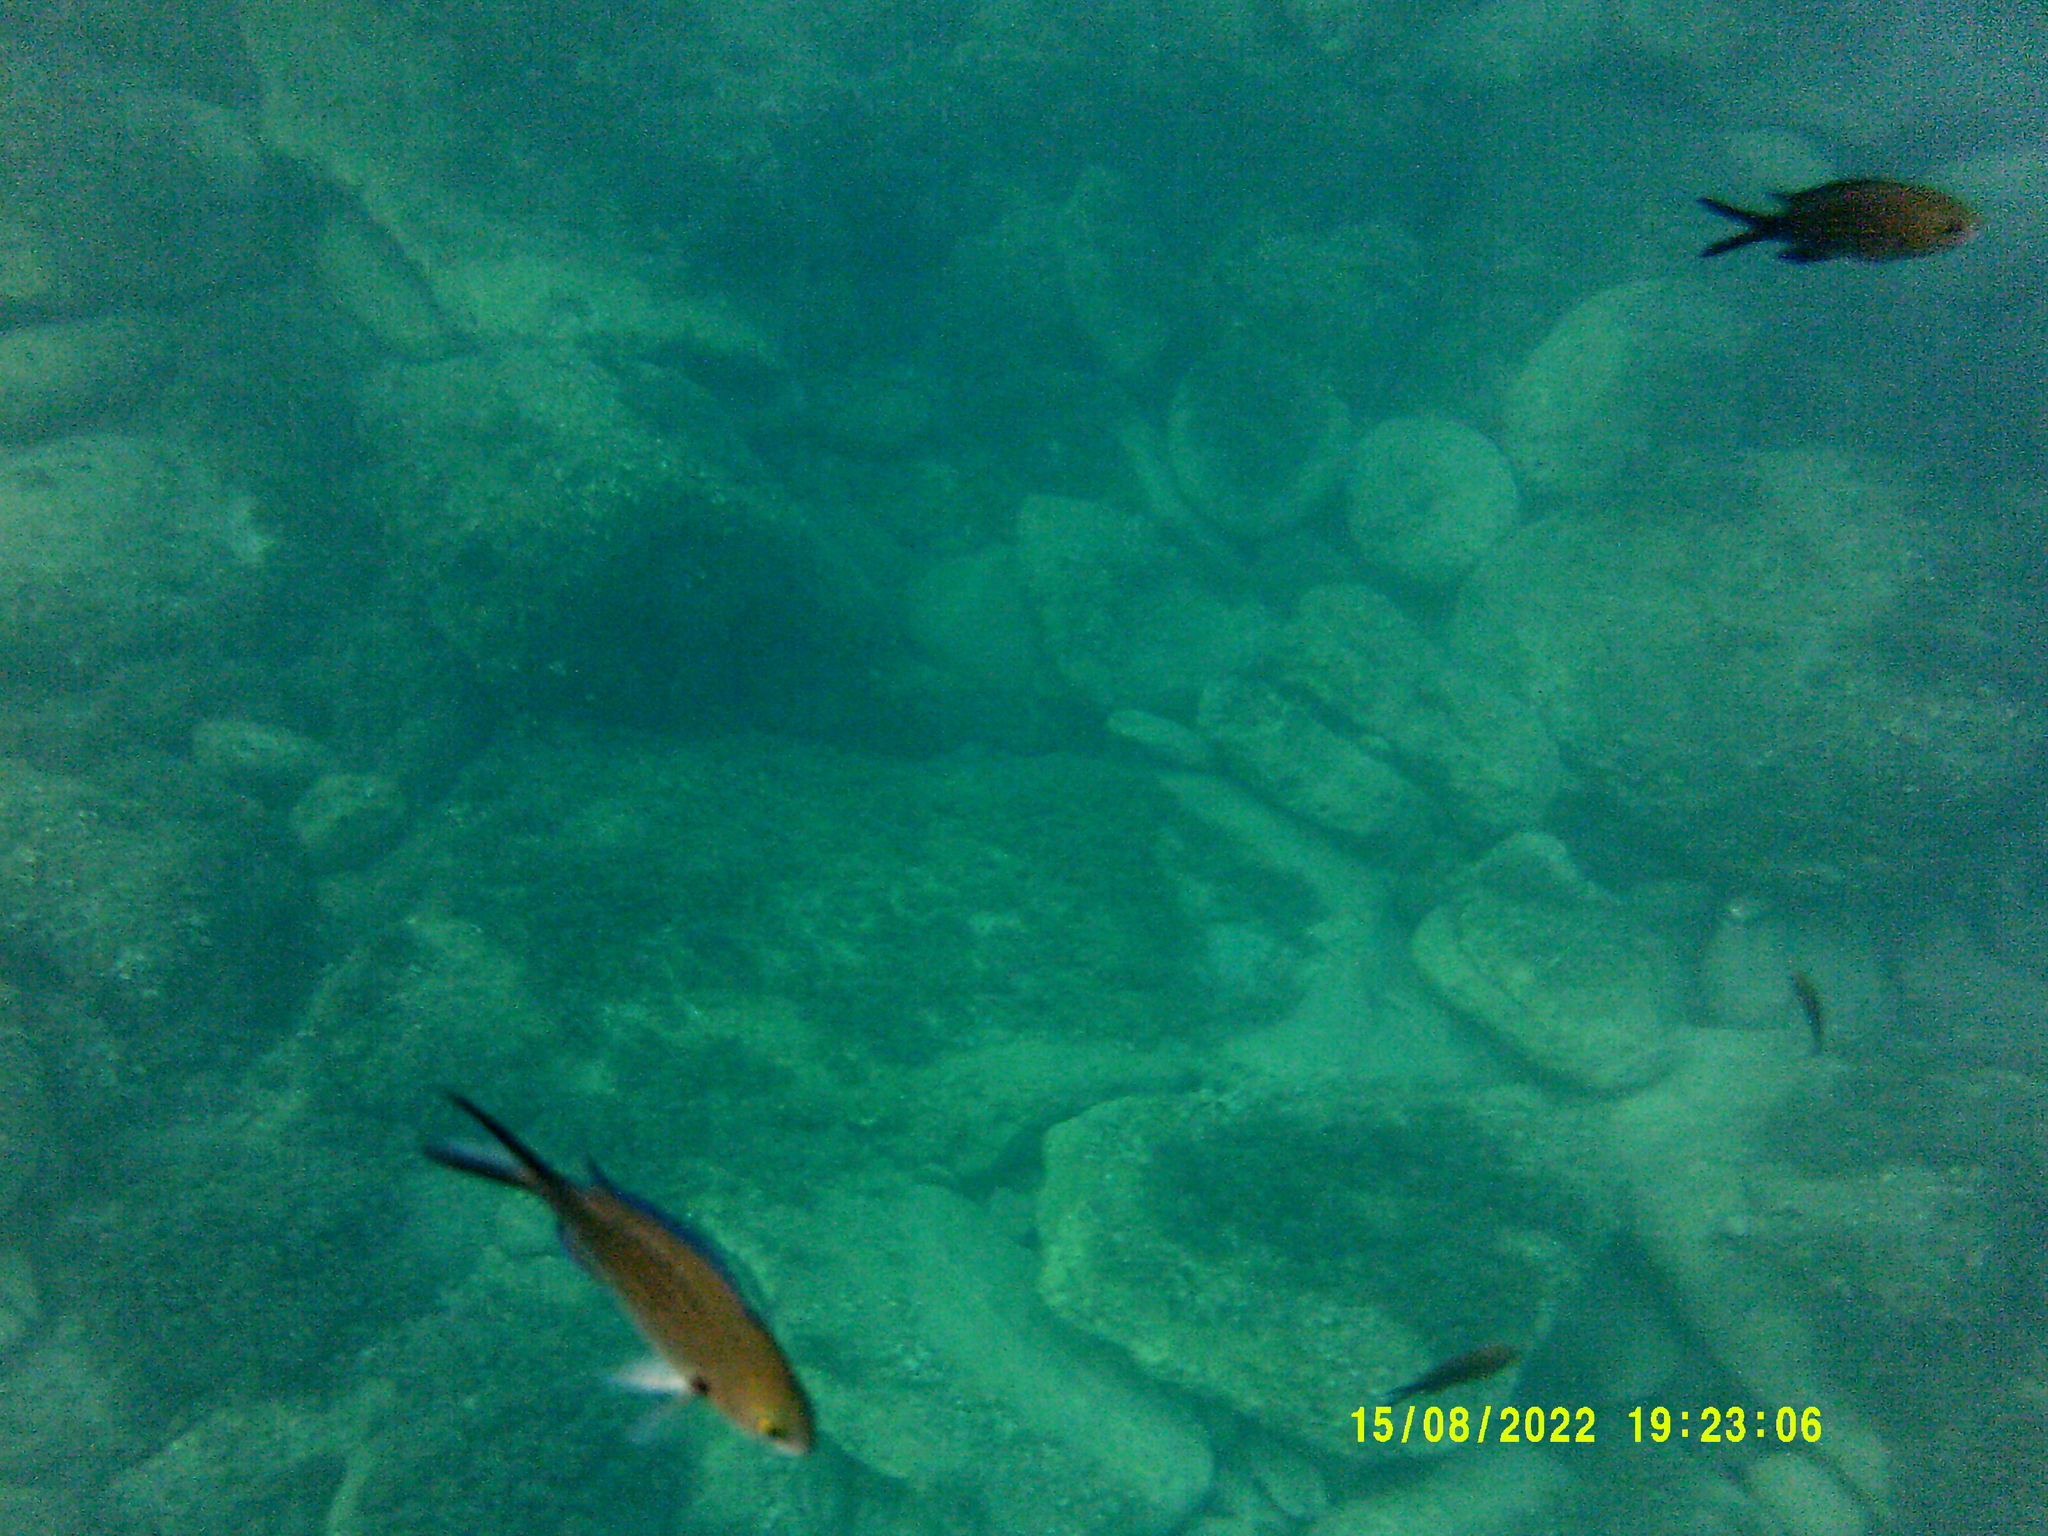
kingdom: Animalia
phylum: Chordata
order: Perciformes
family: Pomacentridae
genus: Chromis
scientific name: Chromis chromis
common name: Damselfish
